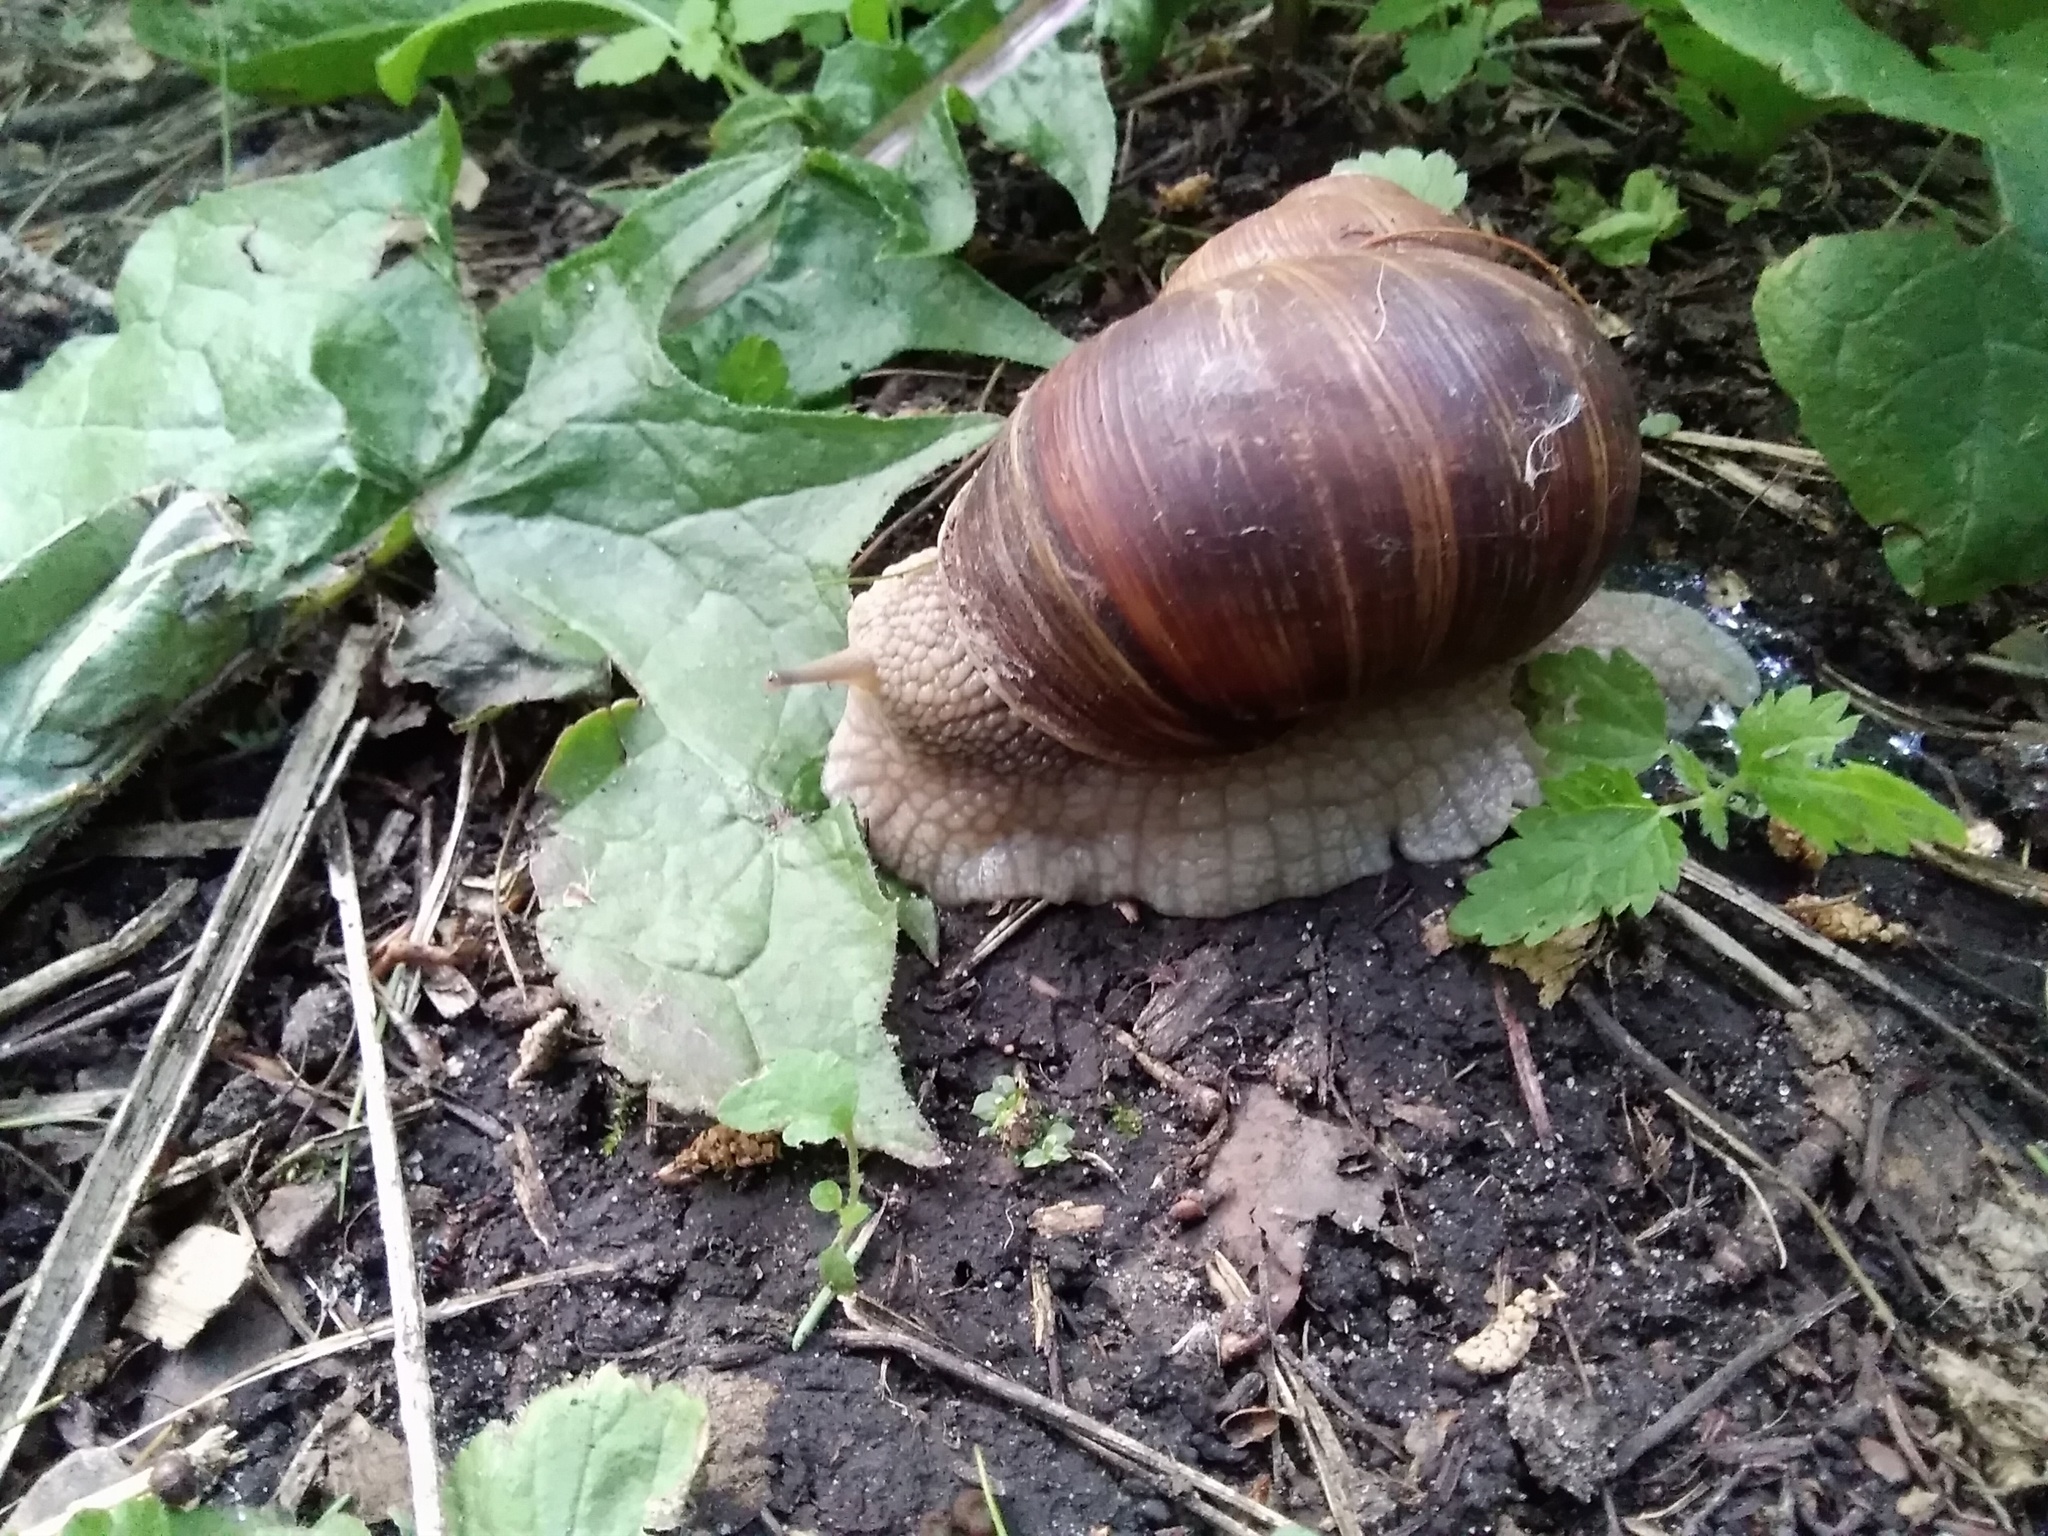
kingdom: Animalia
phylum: Mollusca
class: Gastropoda
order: Stylommatophora
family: Helicidae
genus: Helix
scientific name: Helix pomatia
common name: Roman snail
